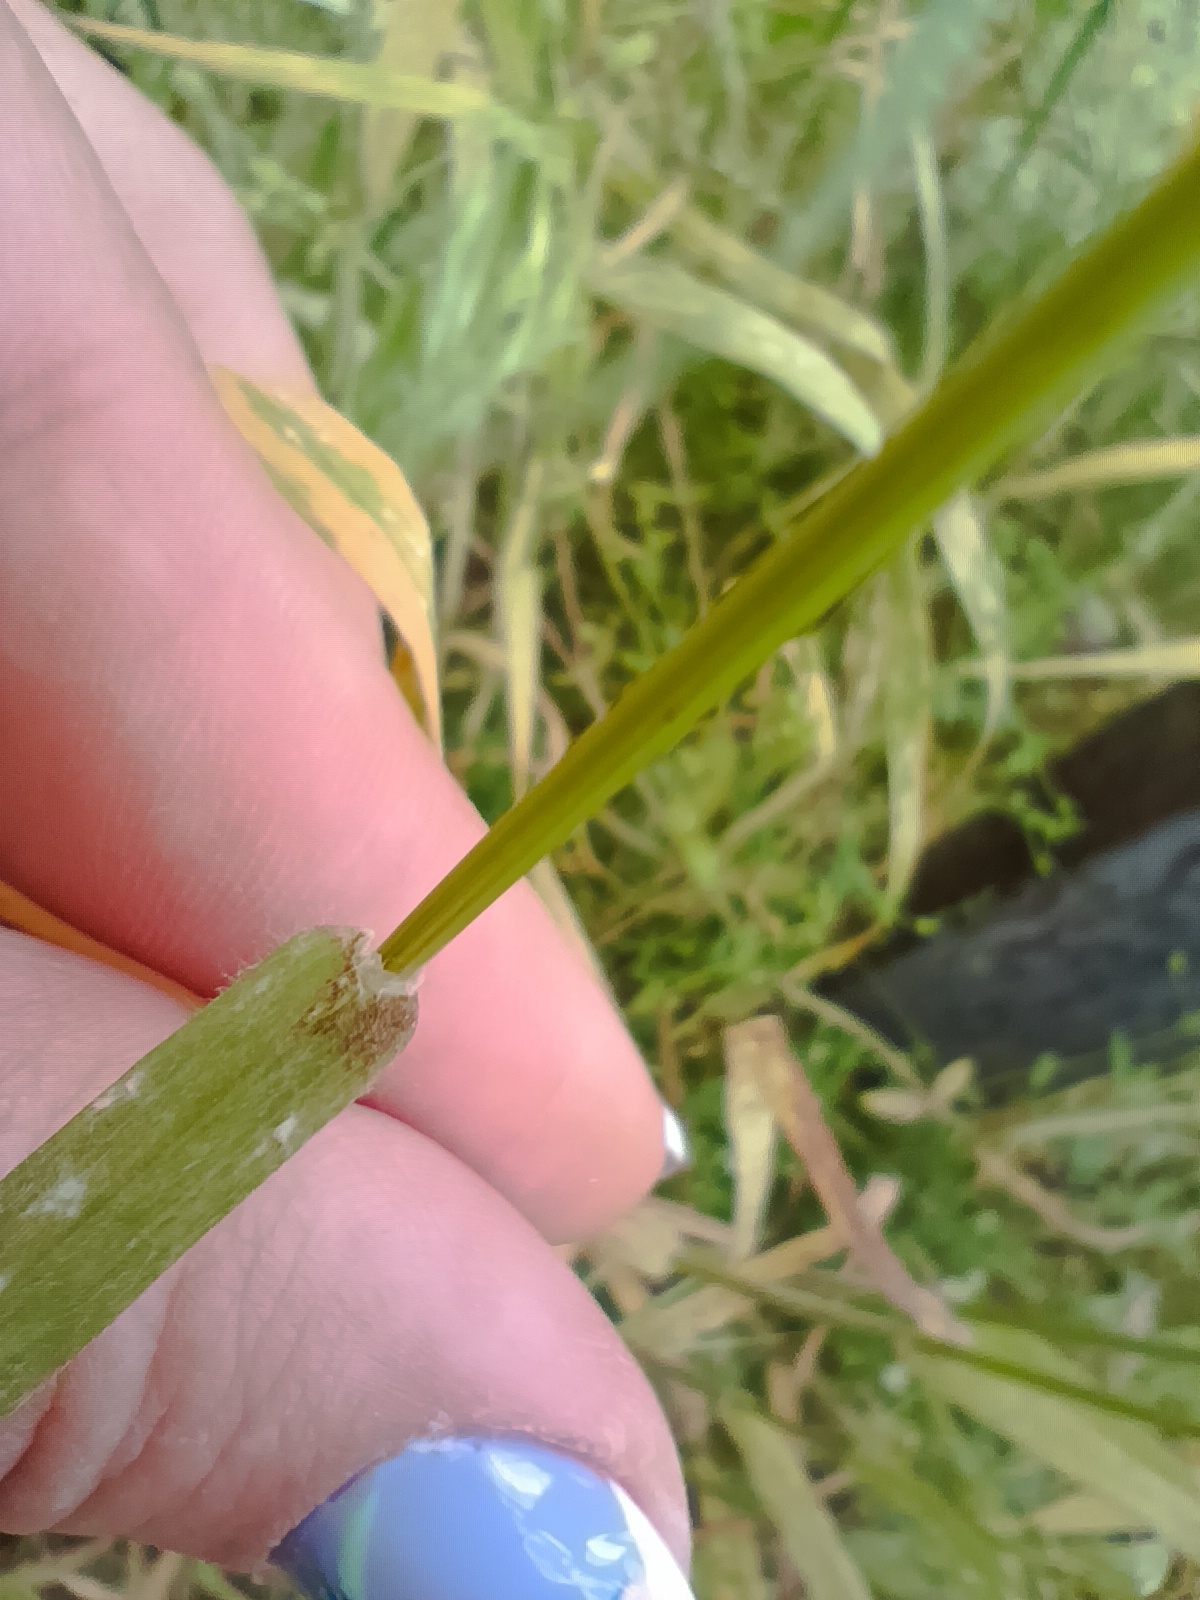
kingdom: Plantae
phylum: Tracheophyta
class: Liliopsida
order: Poales
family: Poaceae
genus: Bromus
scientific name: Bromus tectorum
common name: Cheatgrass
